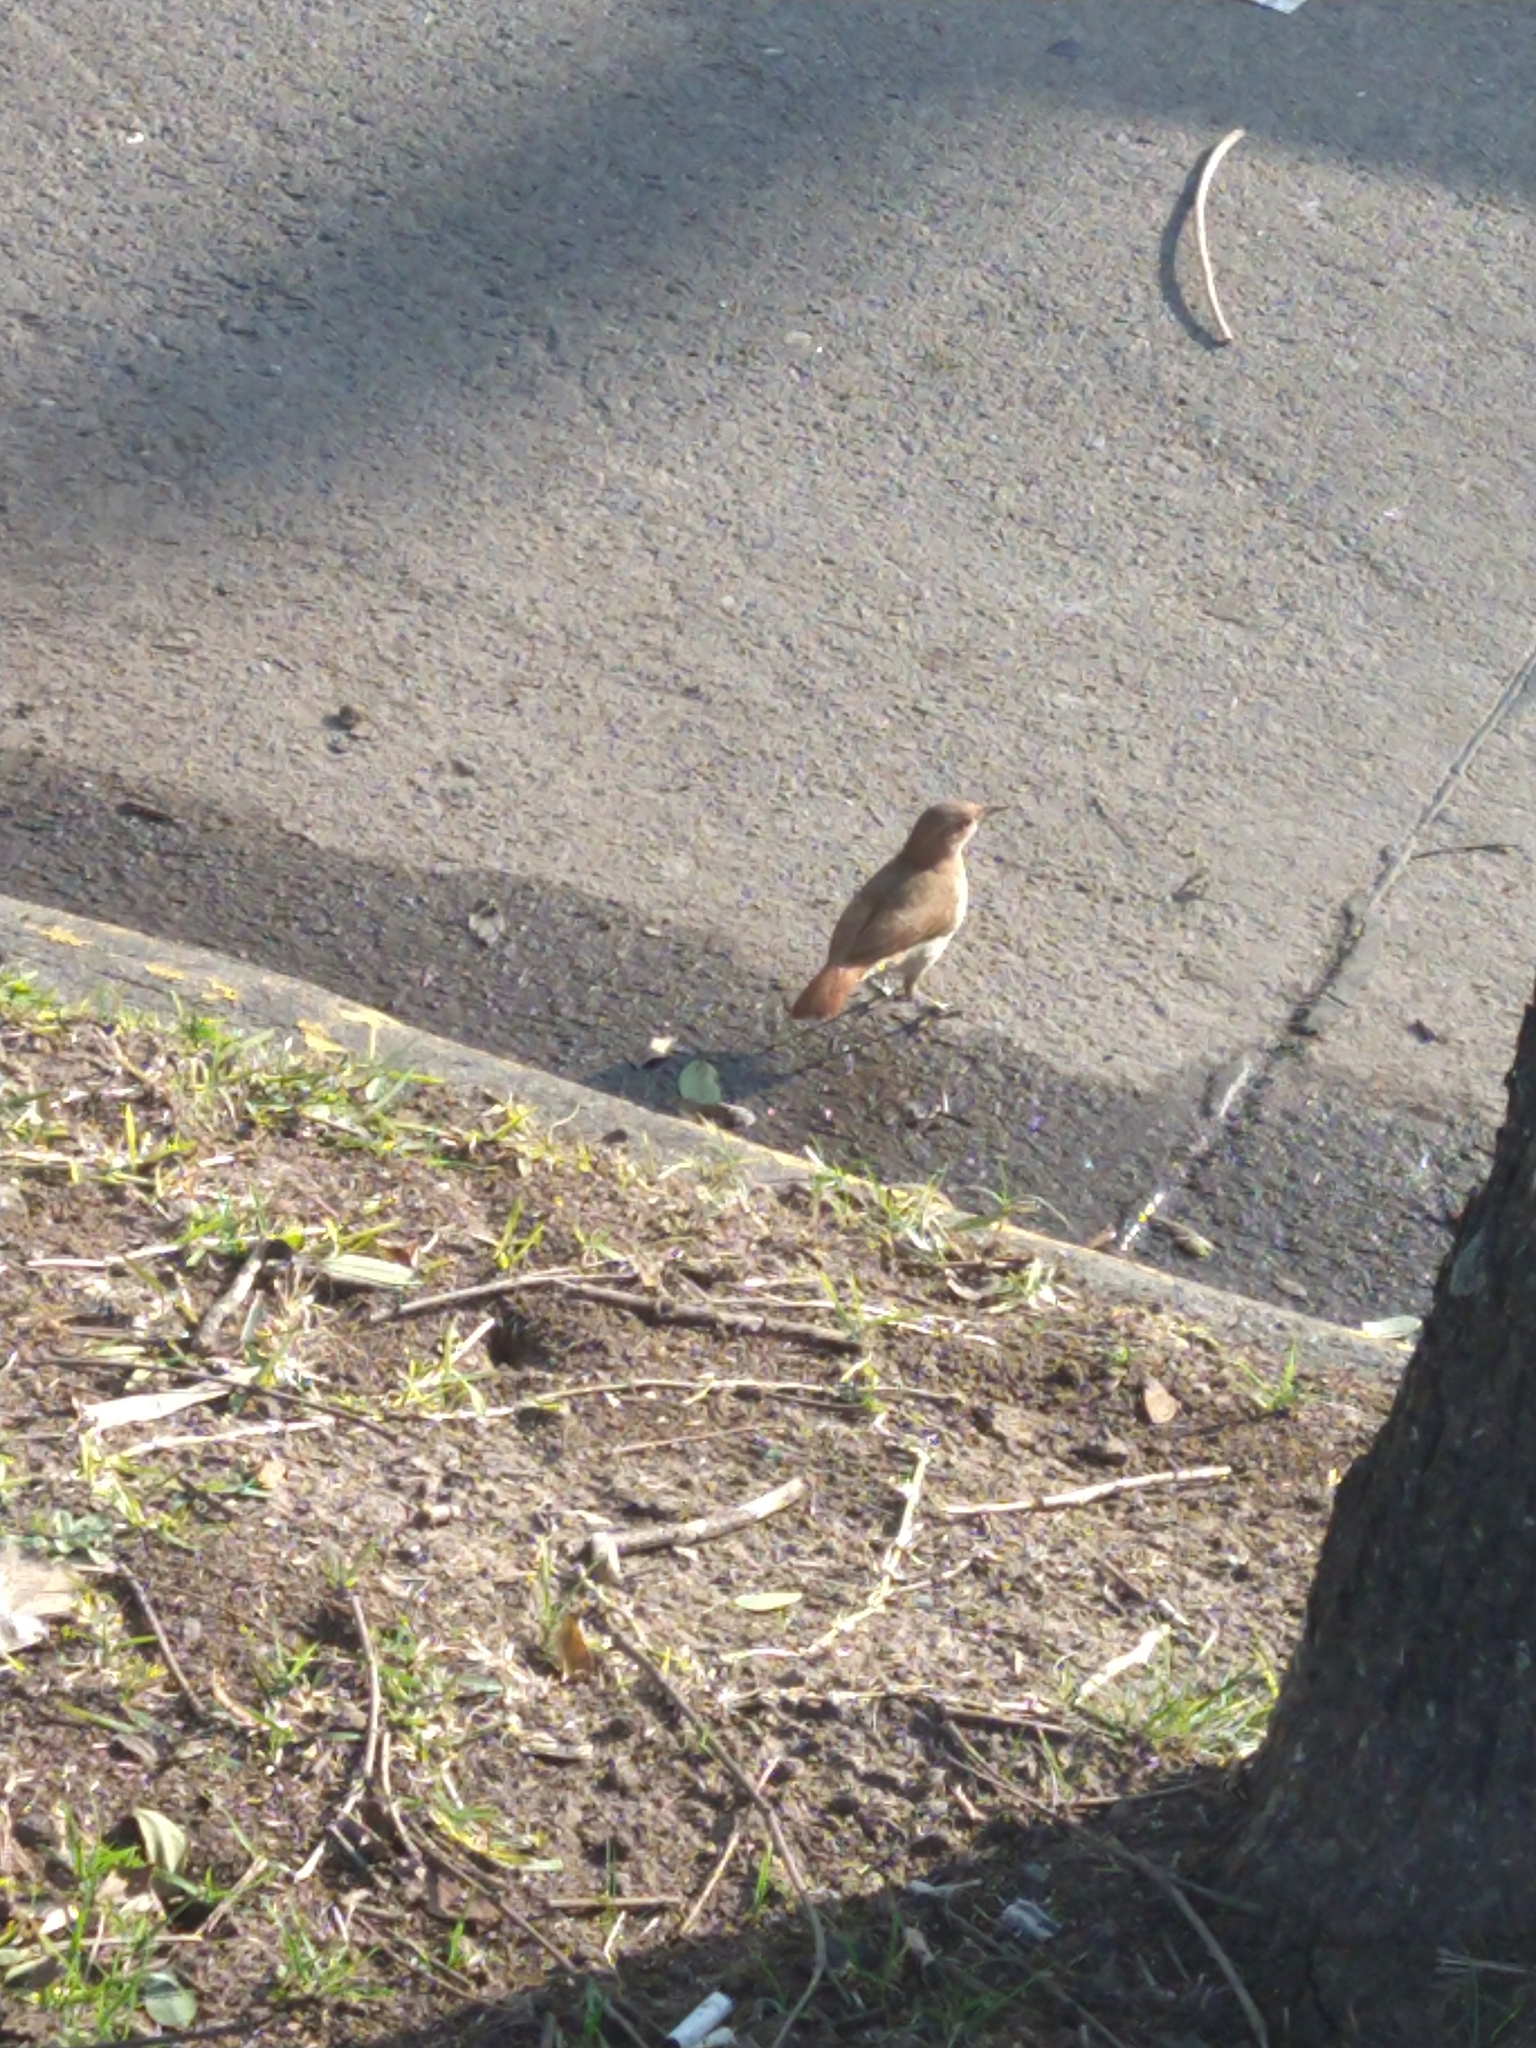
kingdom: Animalia
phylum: Chordata
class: Aves
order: Passeriformes
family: Furnariidae
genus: Furnarius
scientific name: Furnarius rufus
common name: Rufous hornero
